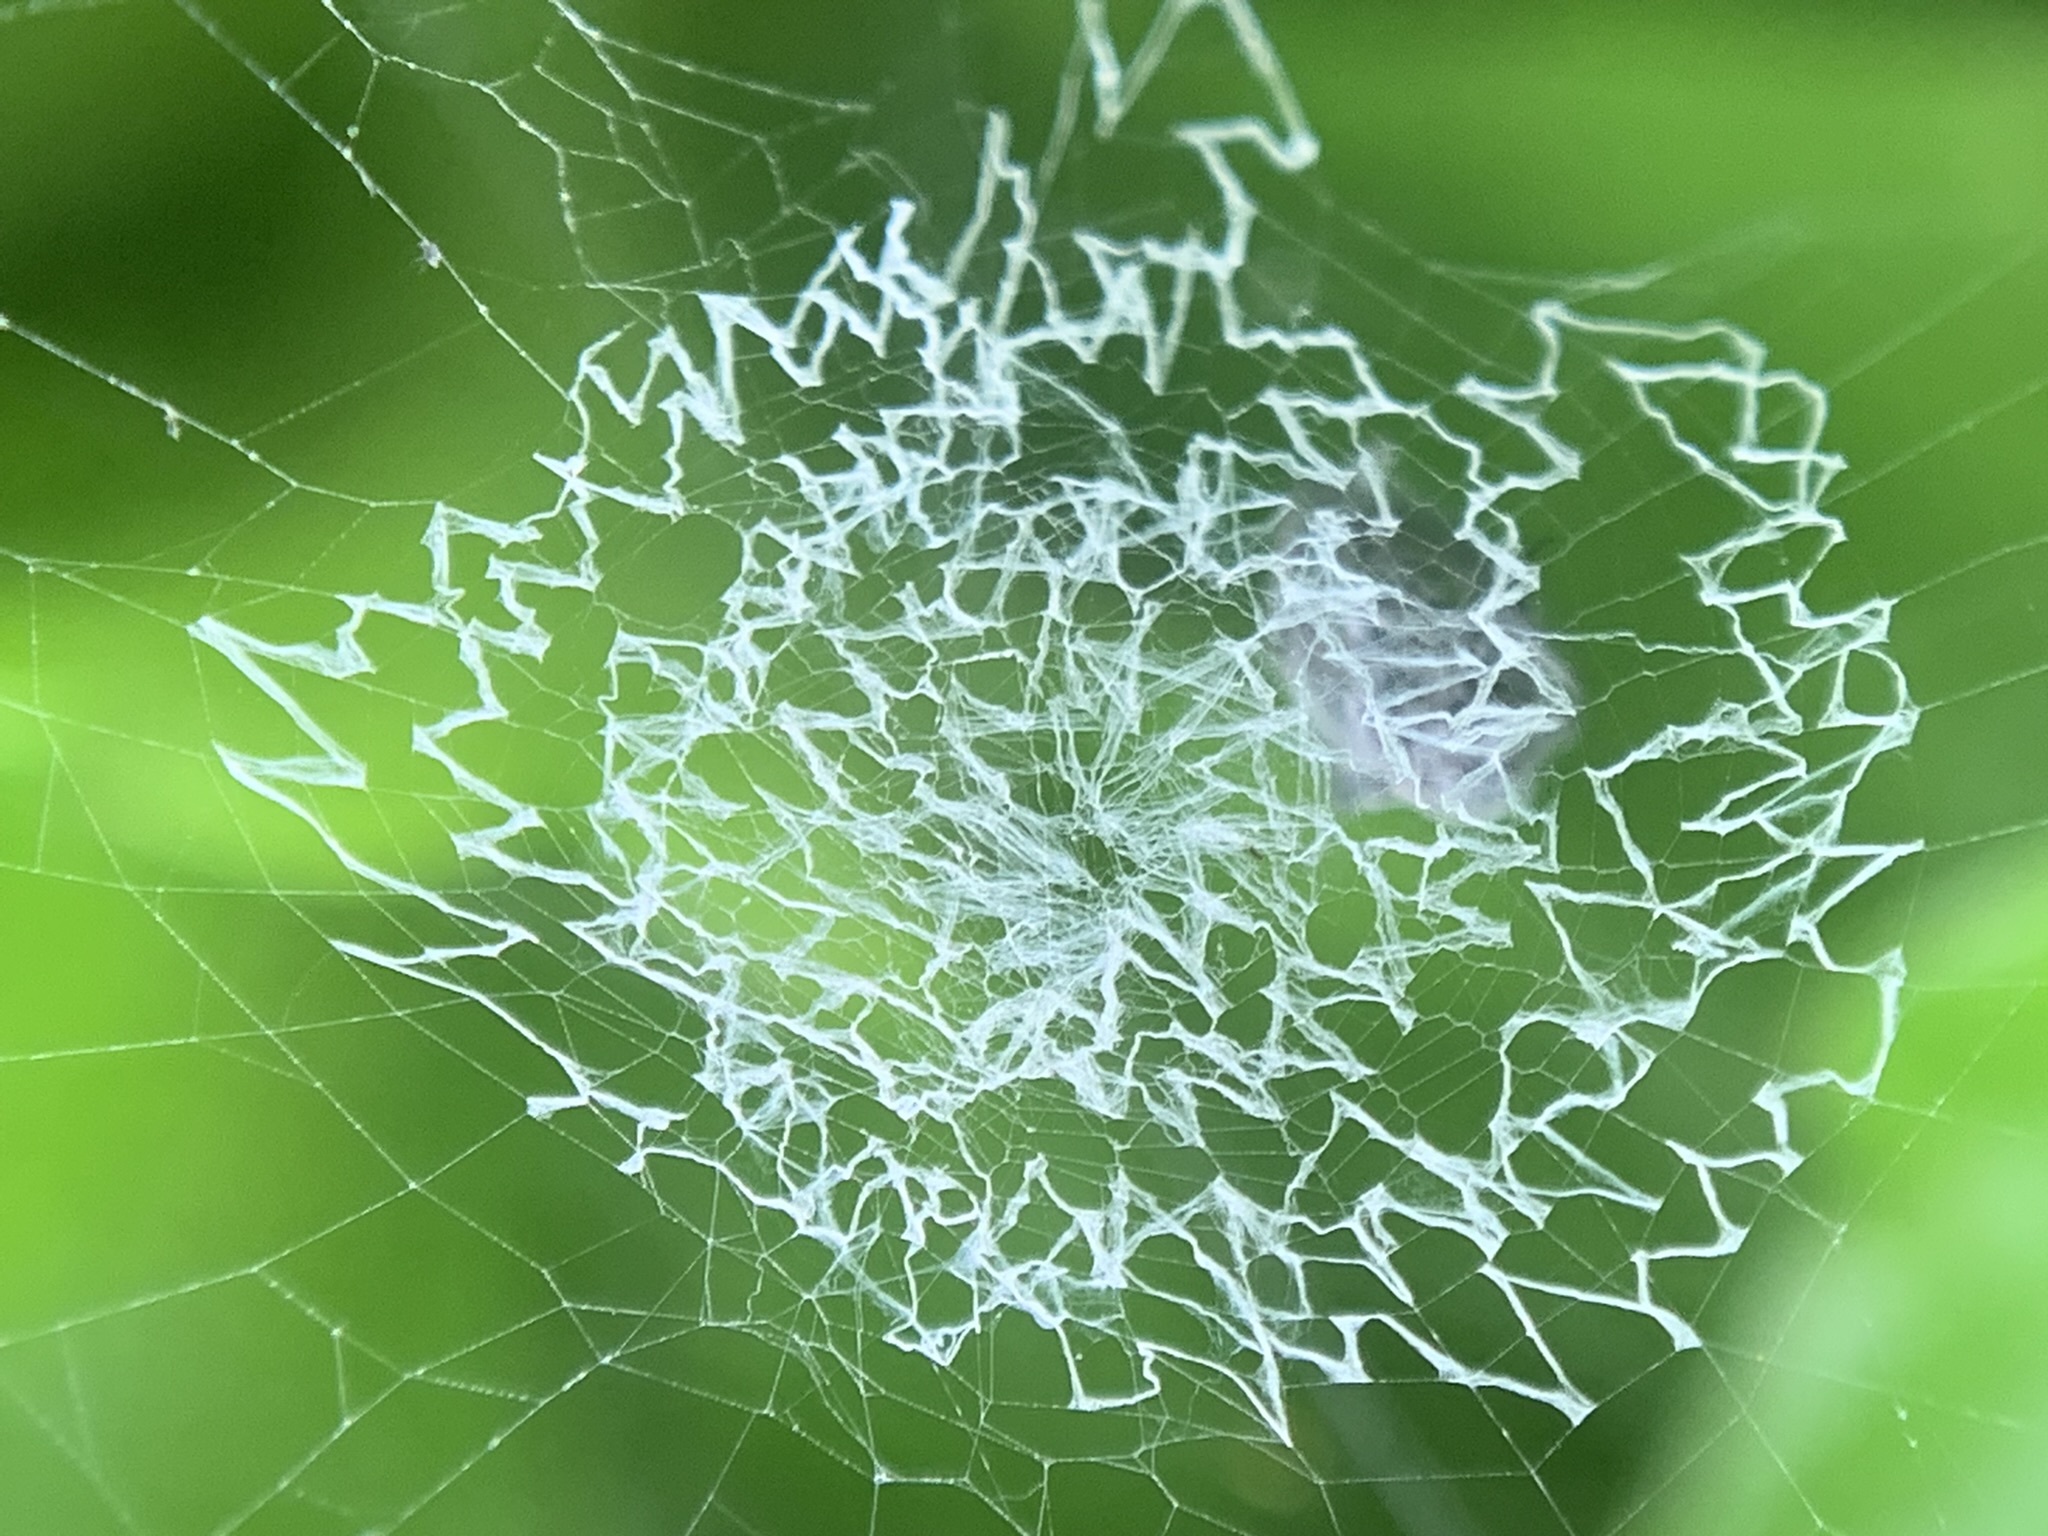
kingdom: Animalia
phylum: Arthropoda
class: Arachnida
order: Araneae
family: Araneidae
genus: Argiope
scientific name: Argiope
